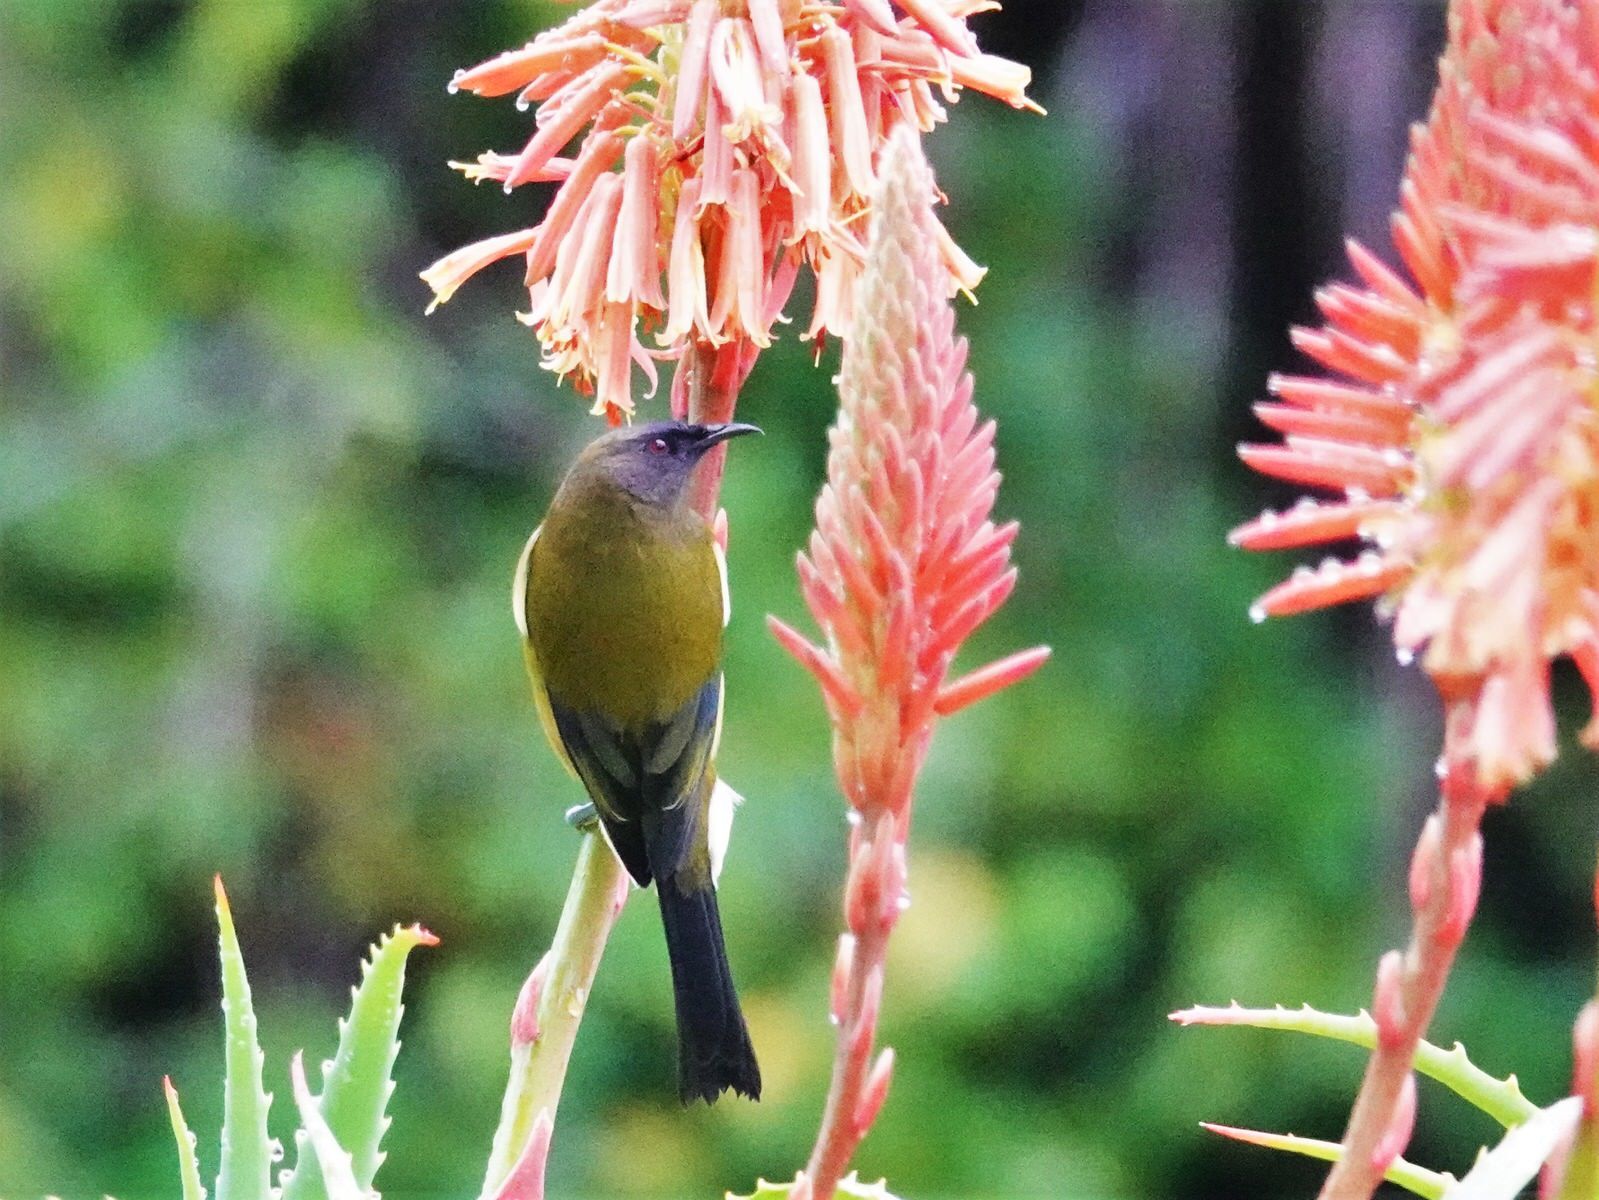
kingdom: Animalia
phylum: Chordata
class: Aves
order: Passeriformes
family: Meliphagidae
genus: Anthornis
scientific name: Anthornis melanura
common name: New zealand bellbird
